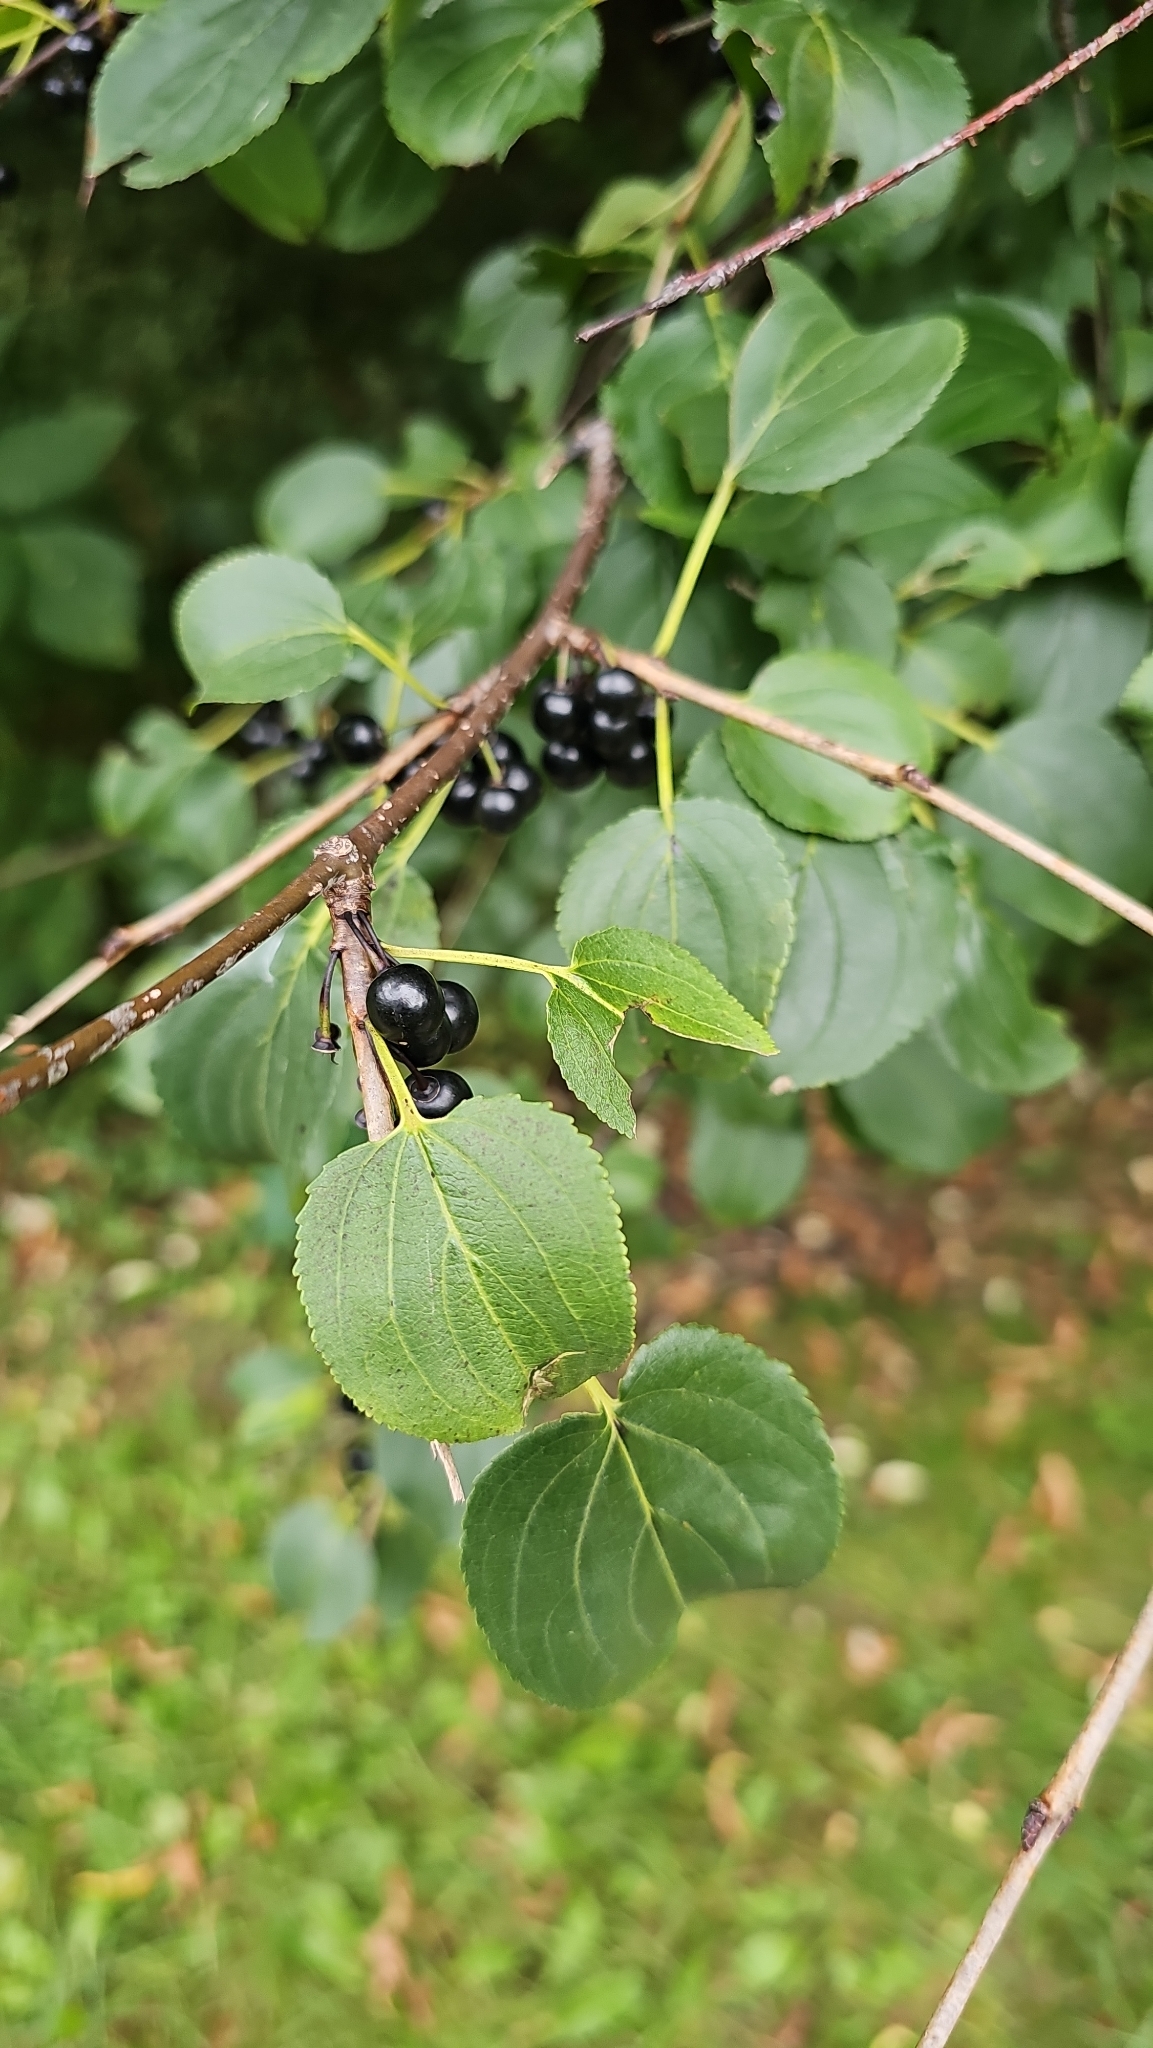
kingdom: Plantae
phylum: Tracheophyta
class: Magnoliopsida
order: Rosales
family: Rhamnaceae
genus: Rhamnus
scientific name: Rhamnus cathartica
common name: Common buckthorn
